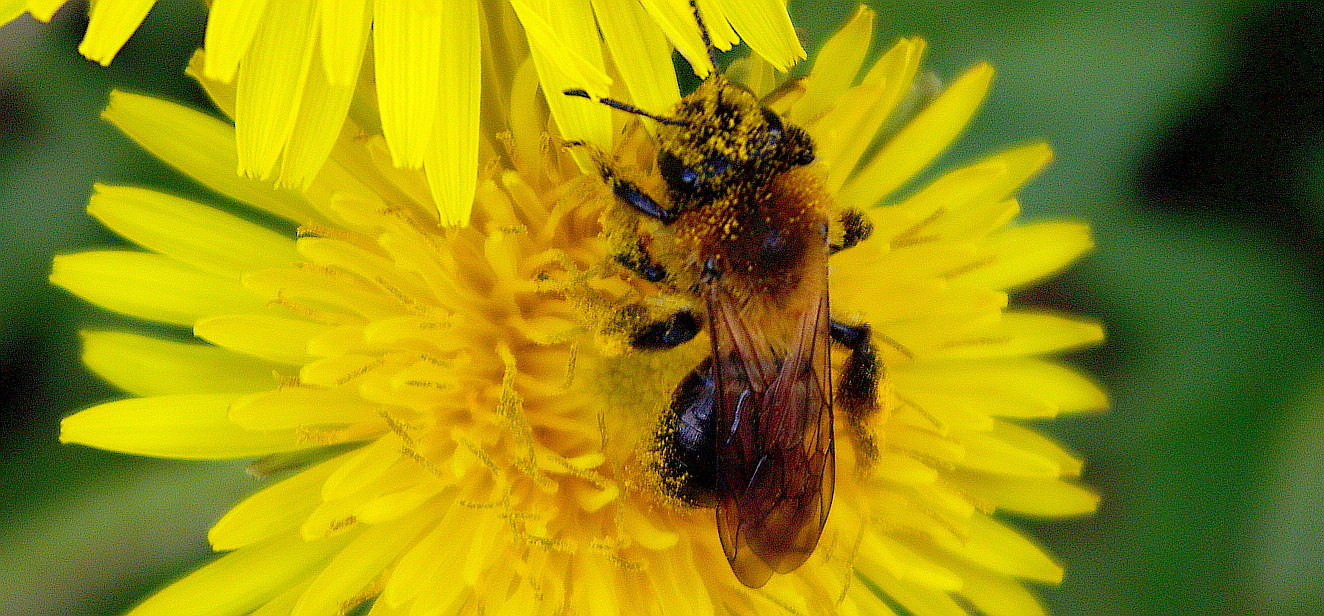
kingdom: Animalia
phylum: Arthropoda
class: Insecta
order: Hymenoptera
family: Andrenidae
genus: Andrena
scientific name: Andrena
